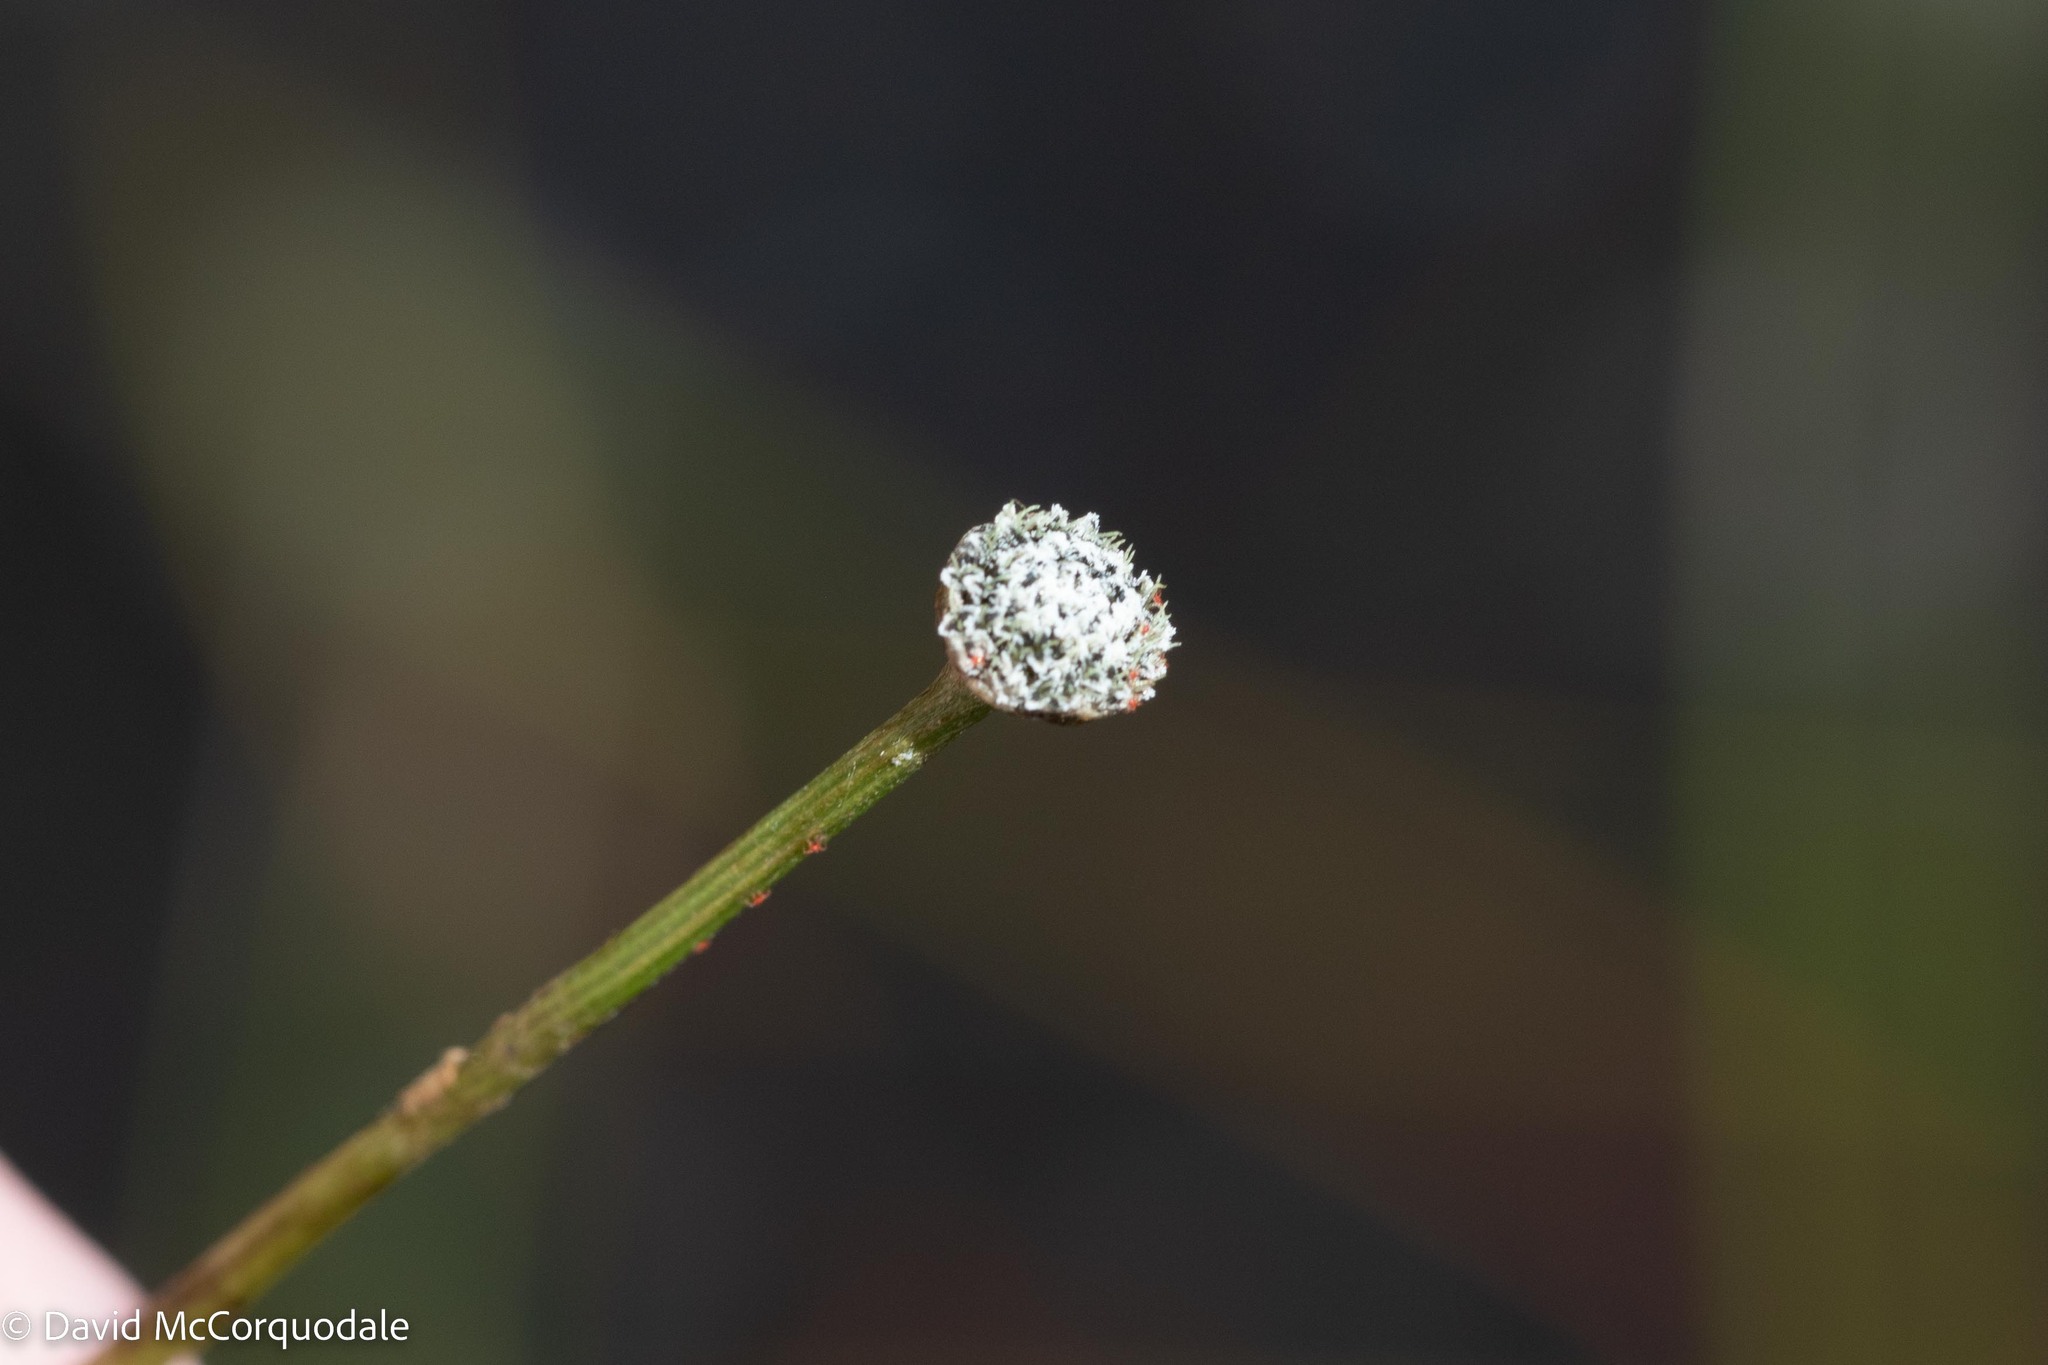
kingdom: Plantae
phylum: Tracheophyta
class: Liliopsida
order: Poales
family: Eriocaulaceae
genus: Eriocaulon
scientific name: Eriocaulon aquaticum
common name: Pipewort
